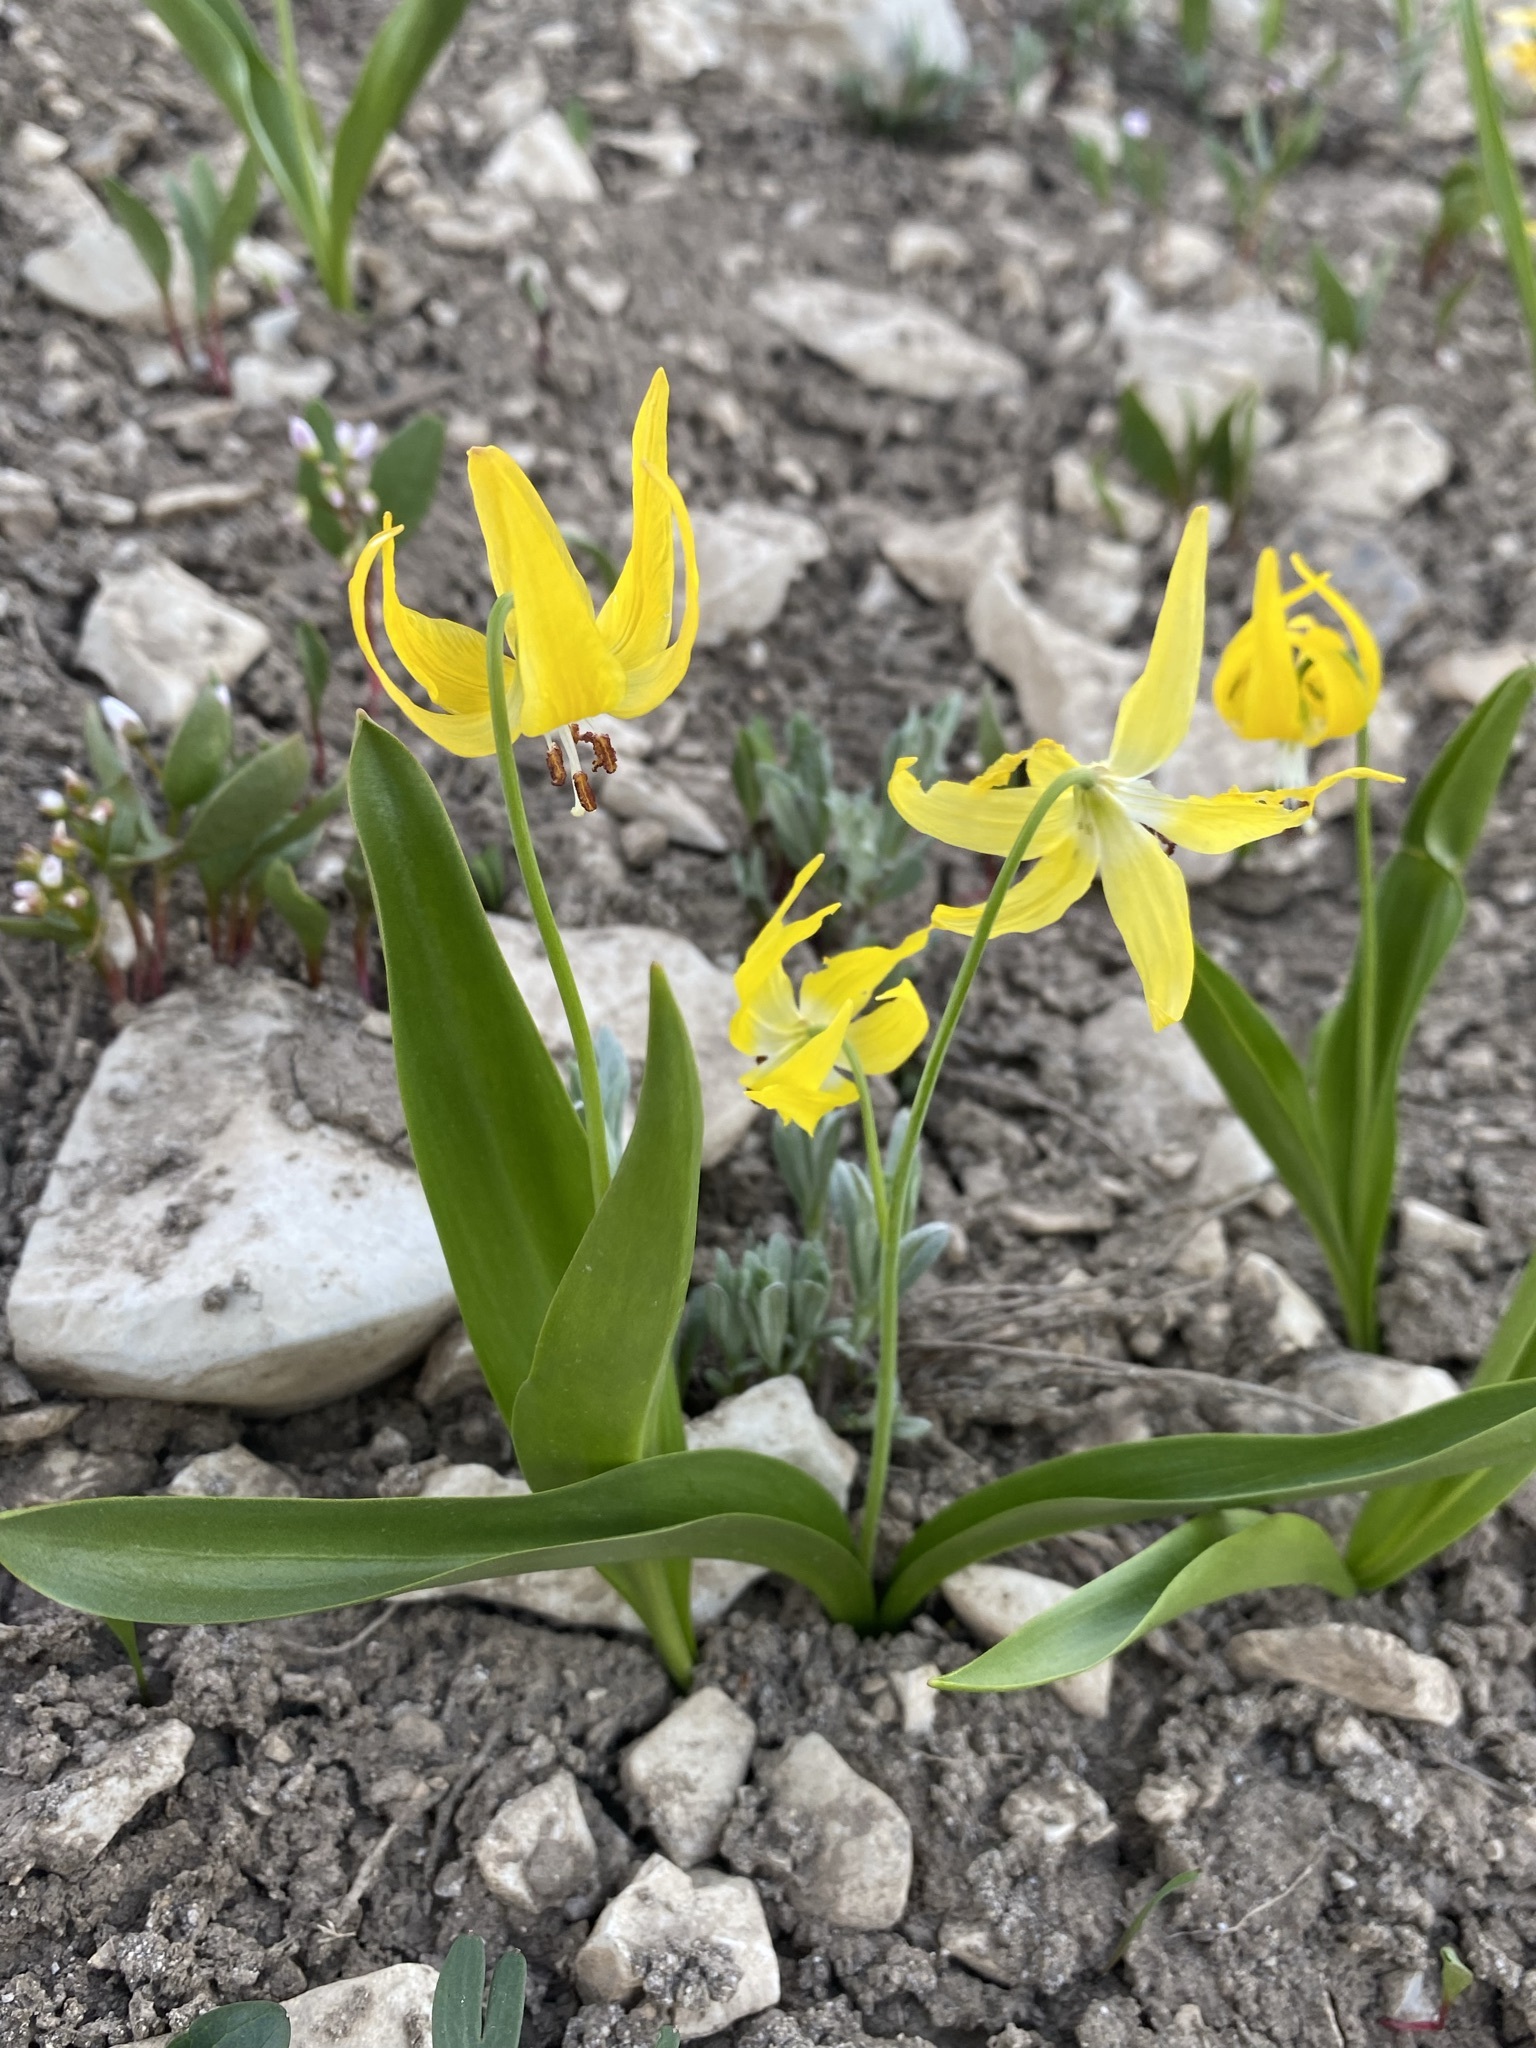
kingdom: Plantae
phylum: Tracheophyta
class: Liliopsida
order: Liliales
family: Liliaceae
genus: Erythronium
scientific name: Erythronium grandiflorum
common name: Avalanche-lily
